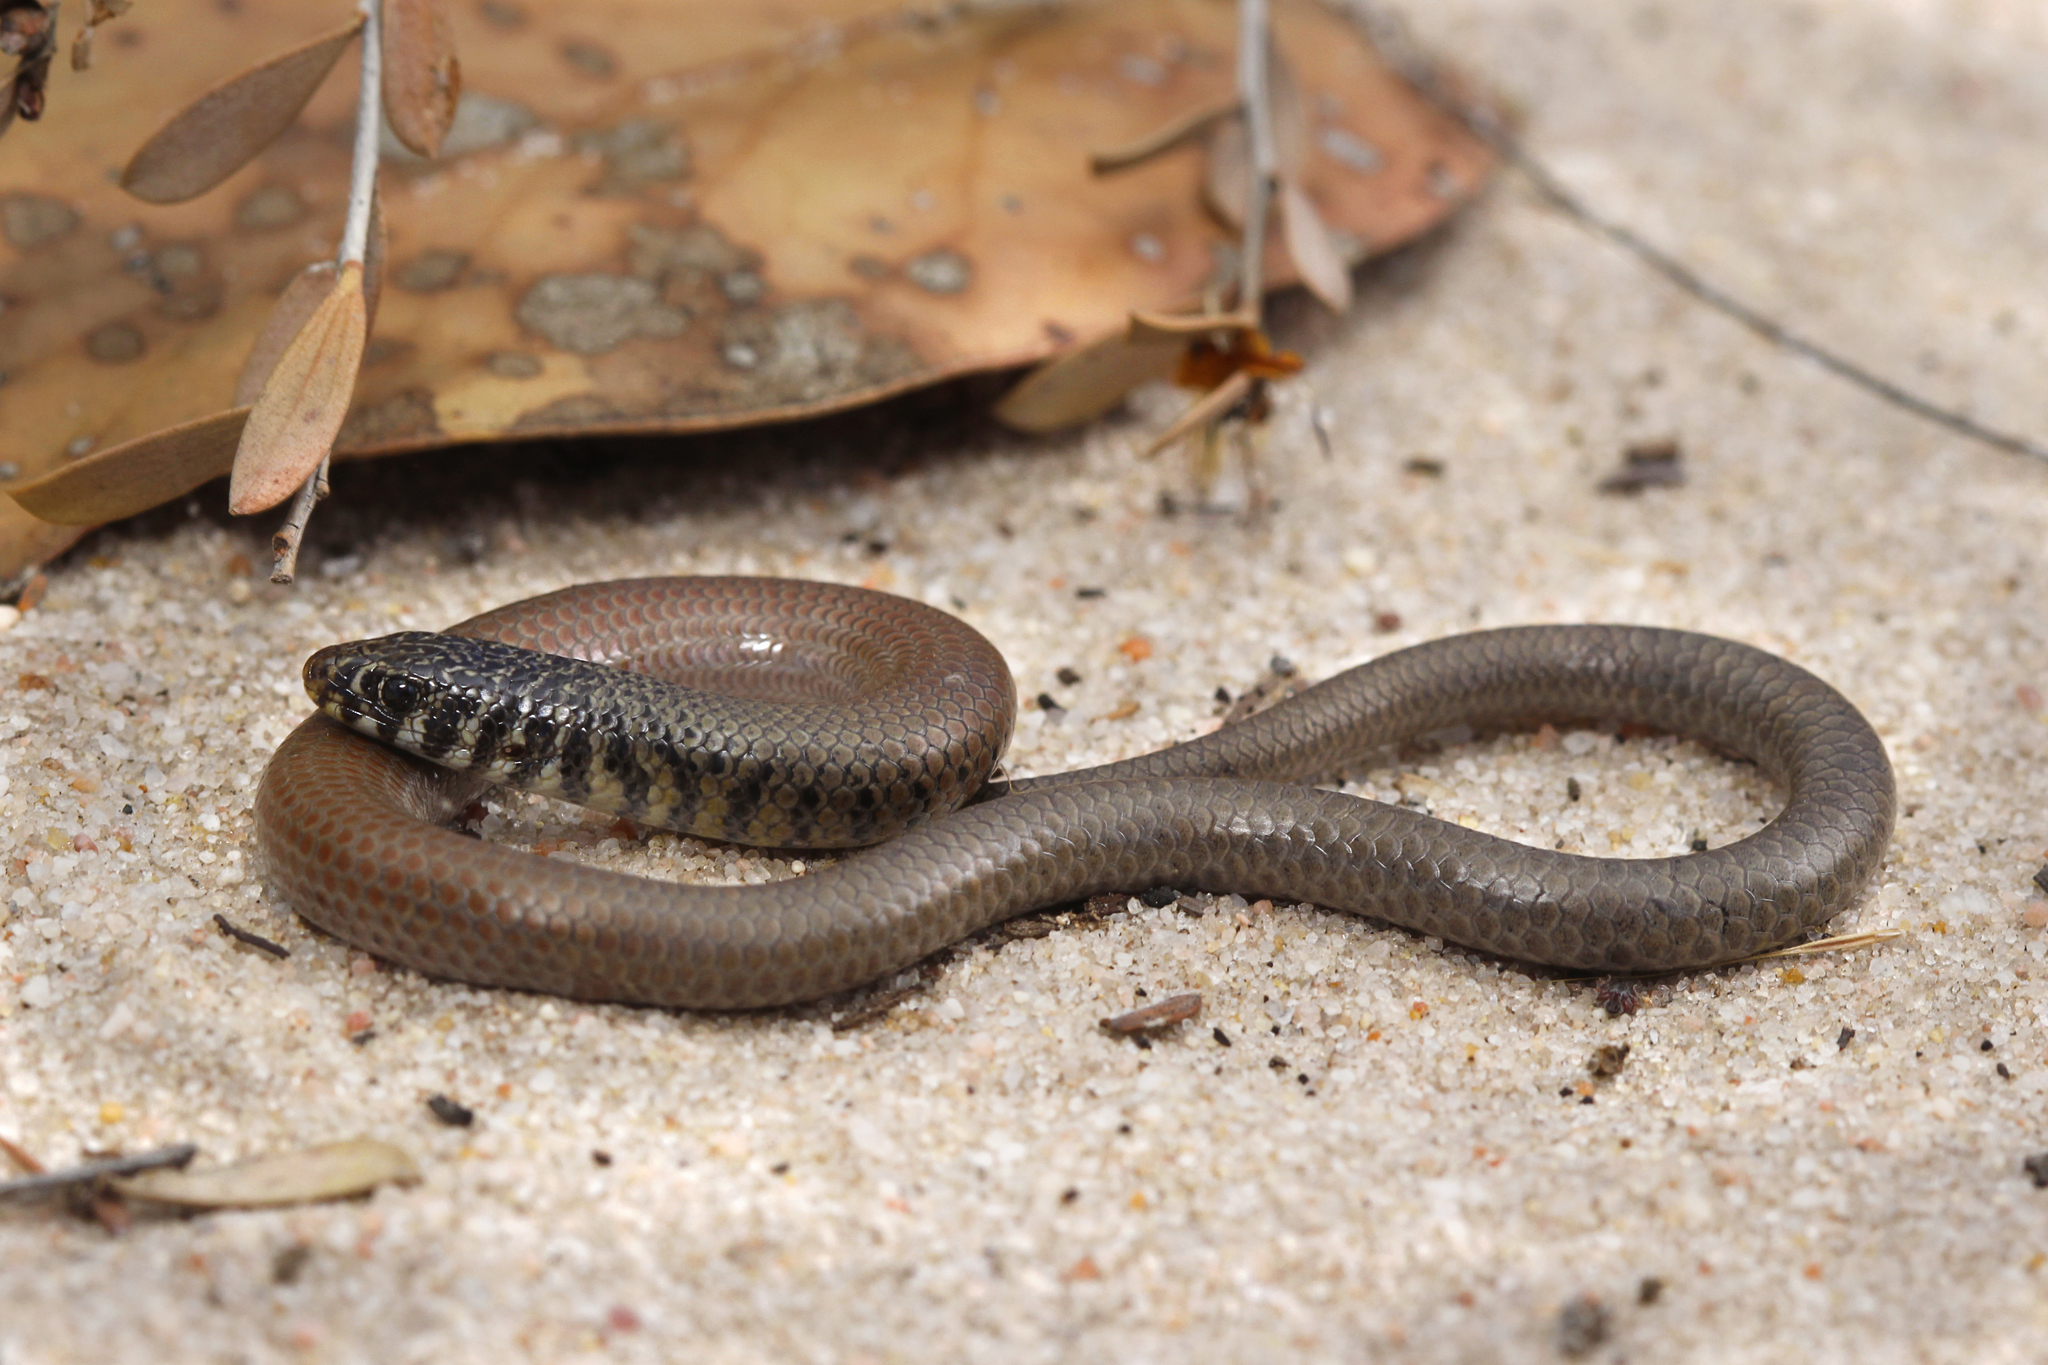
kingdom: Animalia
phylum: Chordata
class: Squamata
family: Pygopodidae
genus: Delma
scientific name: Delma australis
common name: Marble-faced delma
